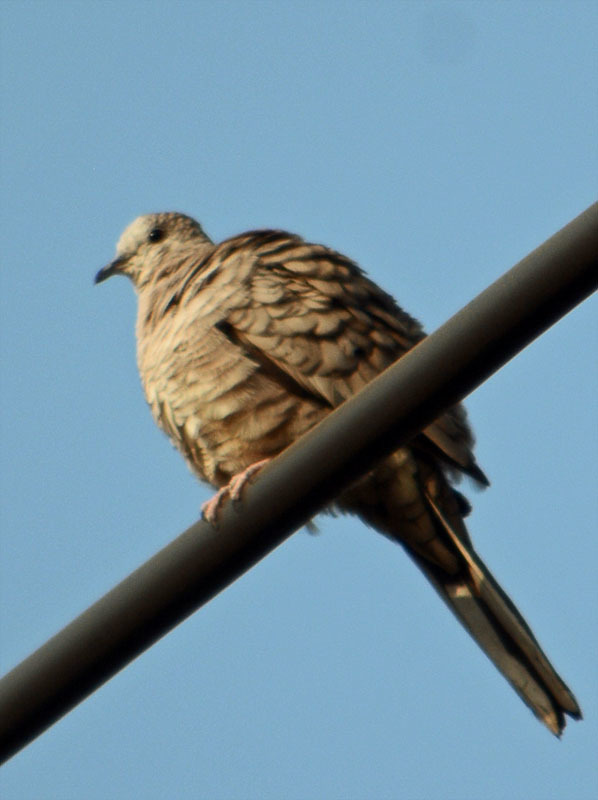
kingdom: Animalia
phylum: Chordata
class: Aves
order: Columbiformes
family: Columbidae
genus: Columbina
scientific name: Columbina inca
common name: Inca dove
